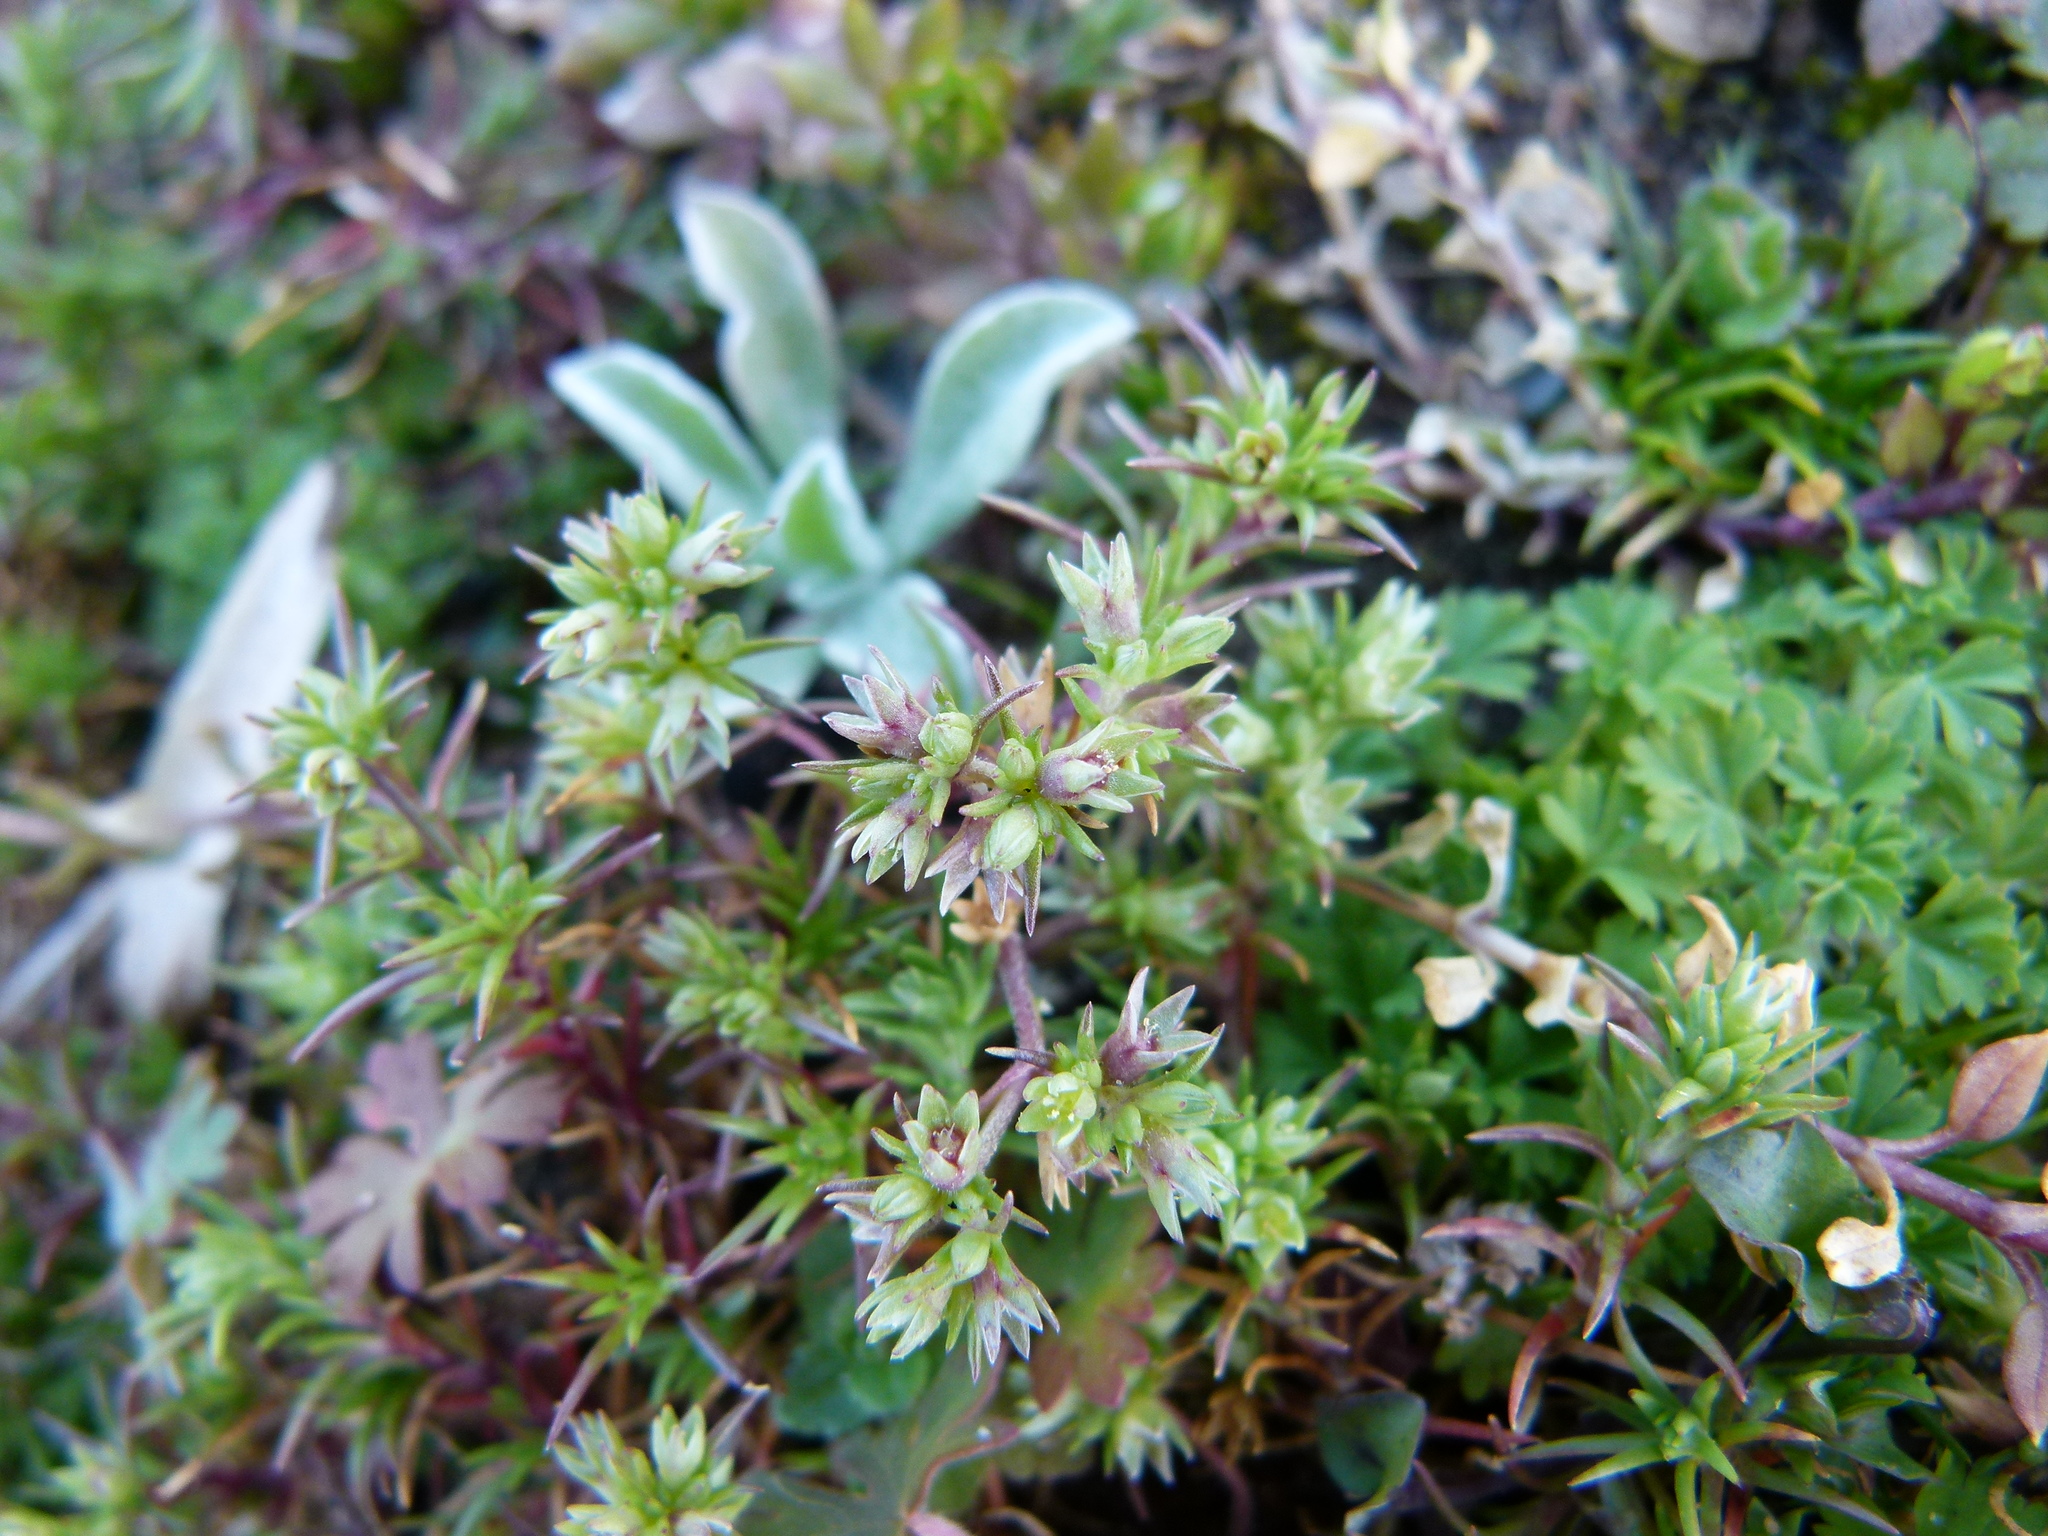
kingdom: Plantae
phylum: Tracheophyta
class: Magnoliopsida
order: Caryophyllales
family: Caryophyllaceae
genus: Scleranthus
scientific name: Scleranthus annuus
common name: Annual knawel
